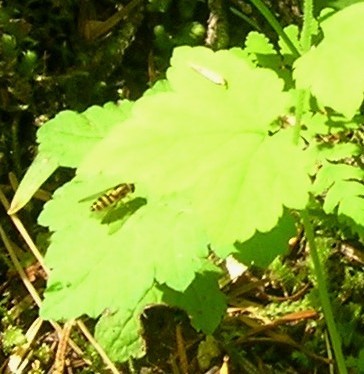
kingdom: Animalia
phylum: Arthropoda
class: Insecta
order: Diptera
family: Syrphidae
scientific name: Syrphidae
